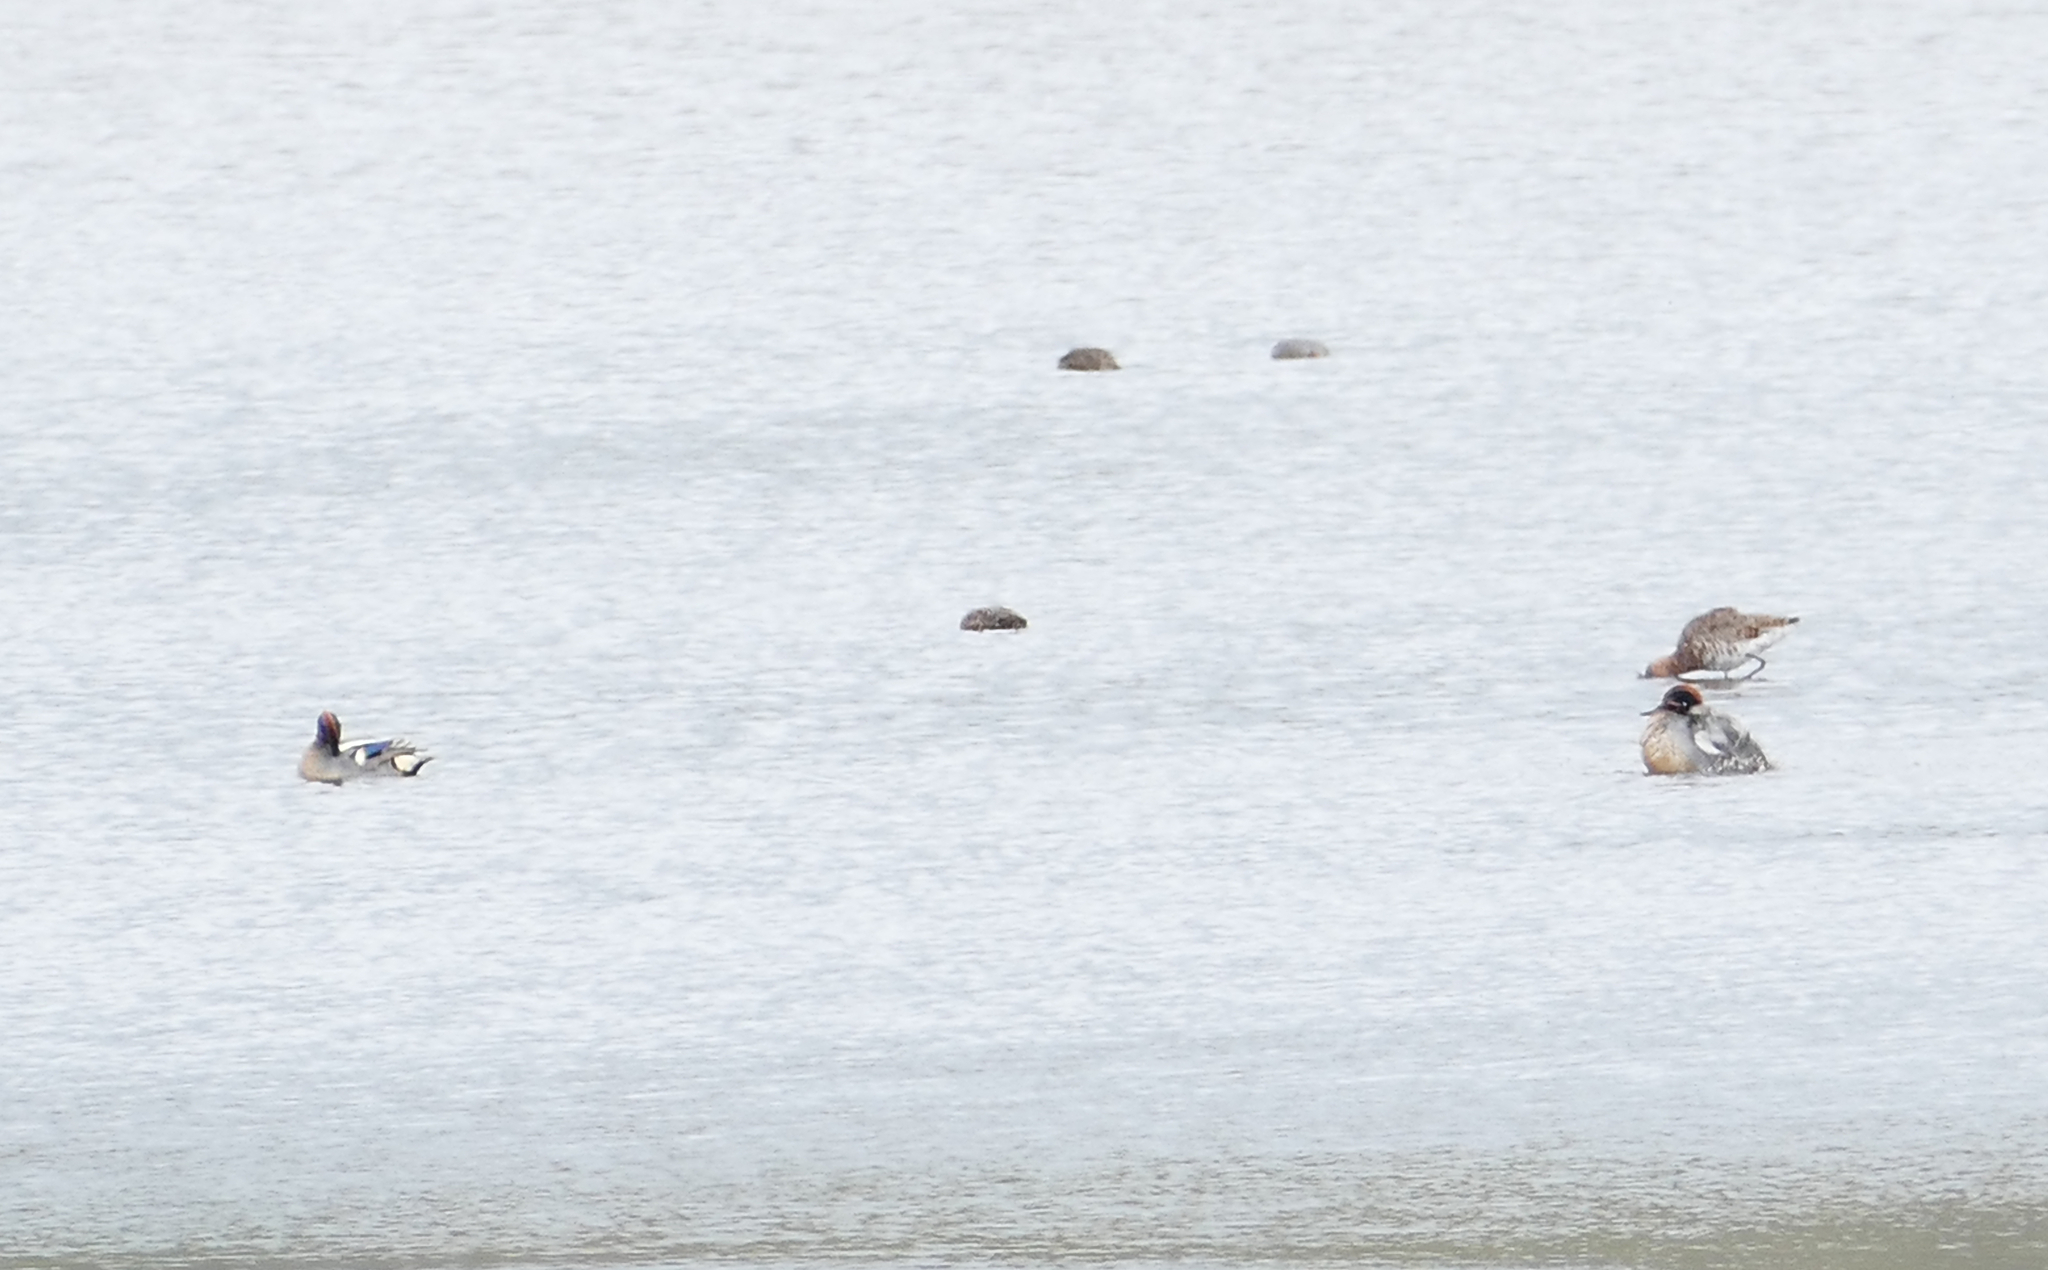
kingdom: Animalia
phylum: Chordata
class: Aves
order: Anseriformes
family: Anatidae
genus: Anas
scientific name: Anas crecca
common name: Eurasian teal
